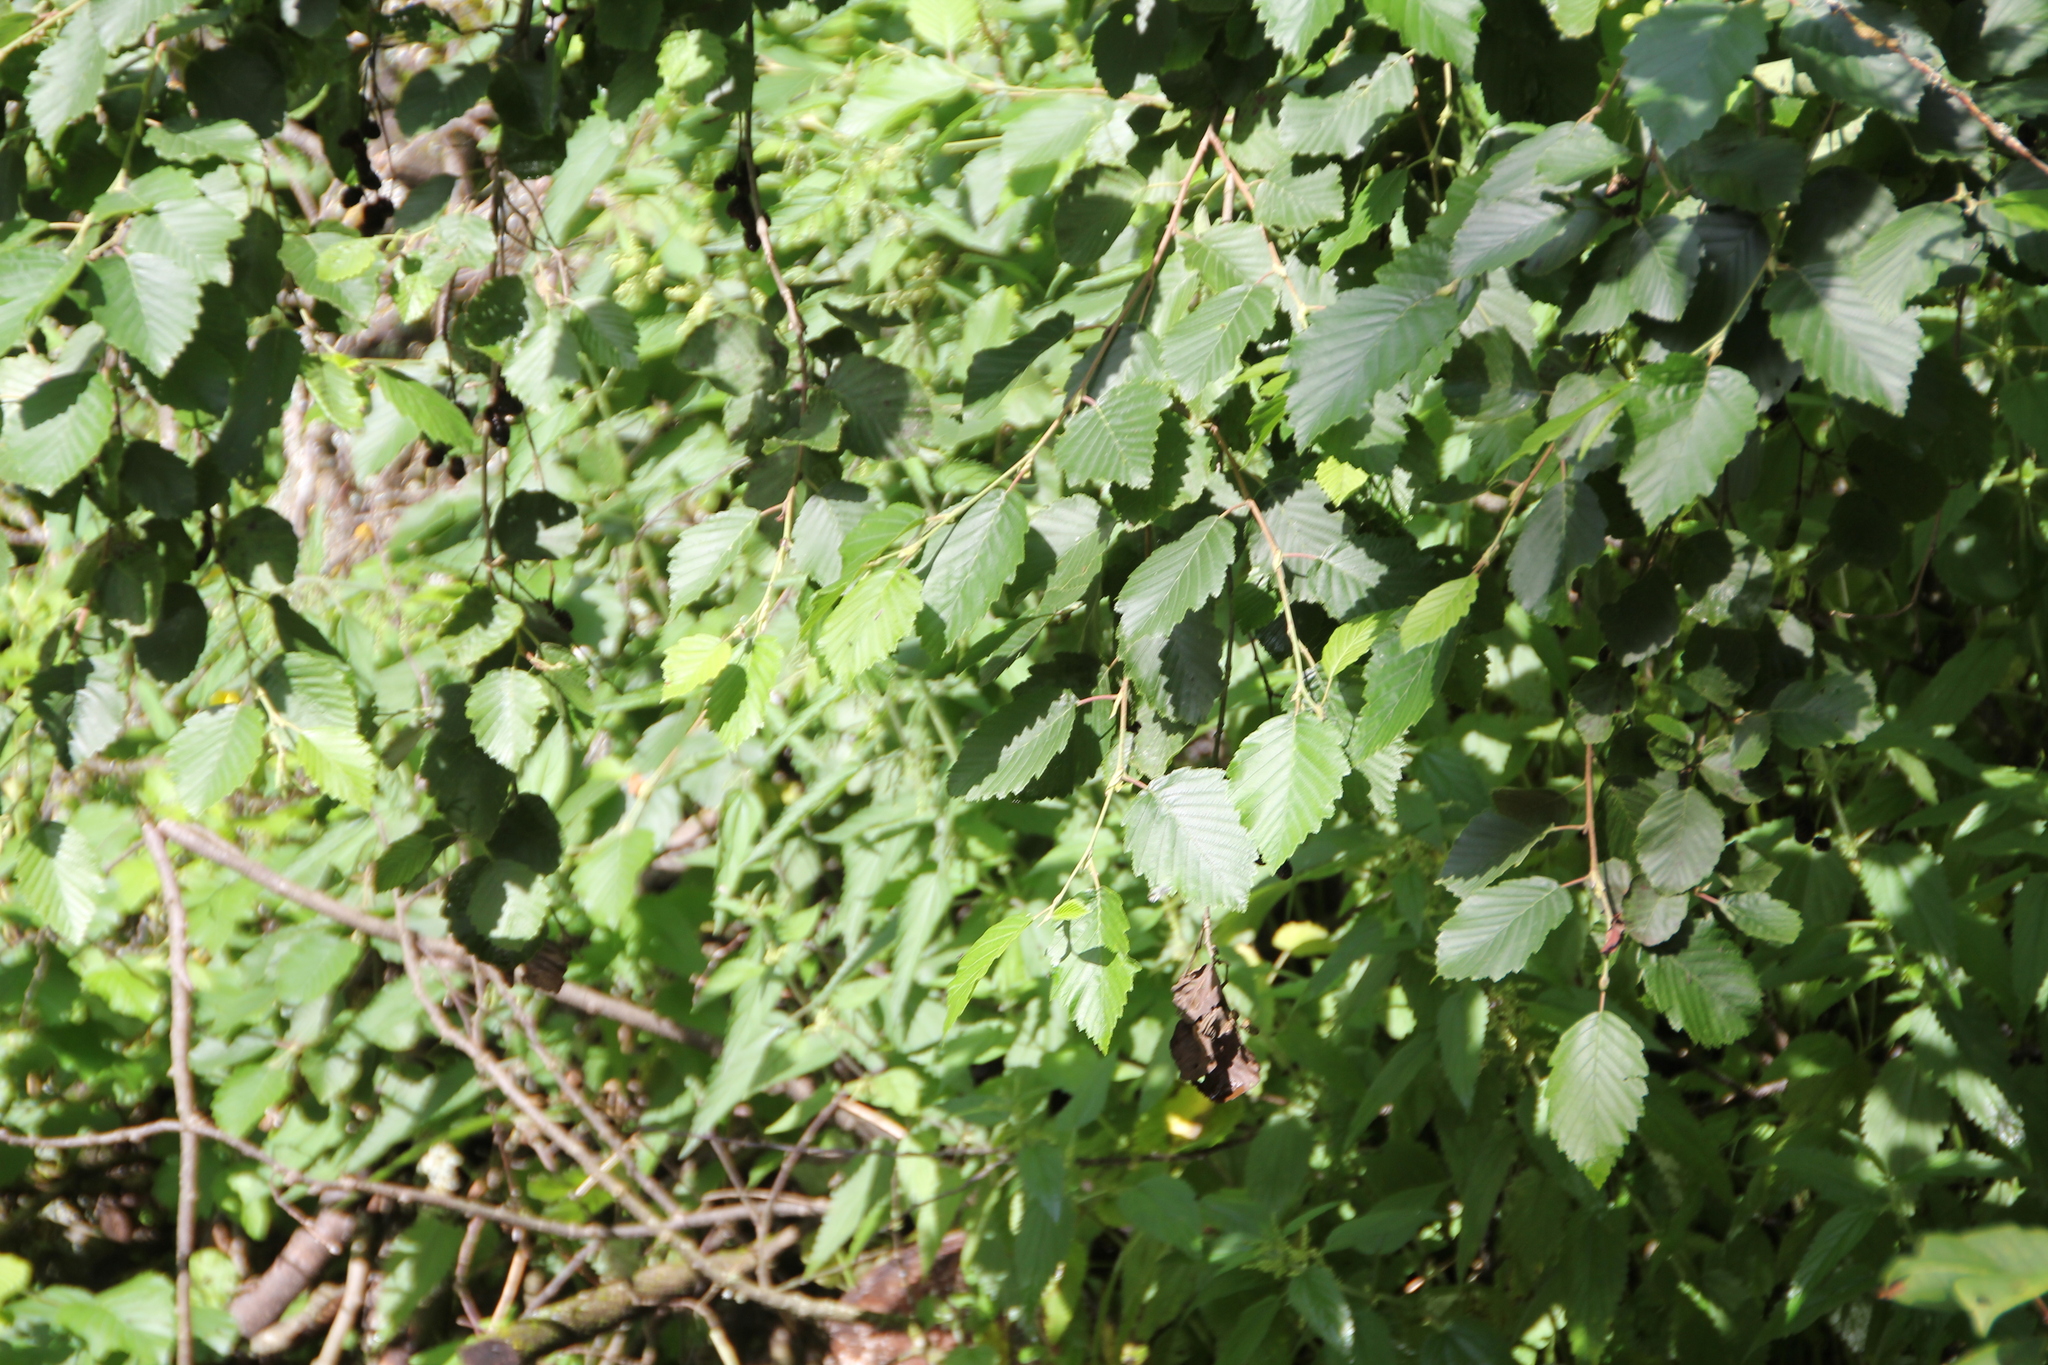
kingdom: Plantae
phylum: Tracheophyta
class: Magnoliopsida
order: Fagales
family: Betulaceae
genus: Alnus
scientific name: Alnus incana
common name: Grey alder
